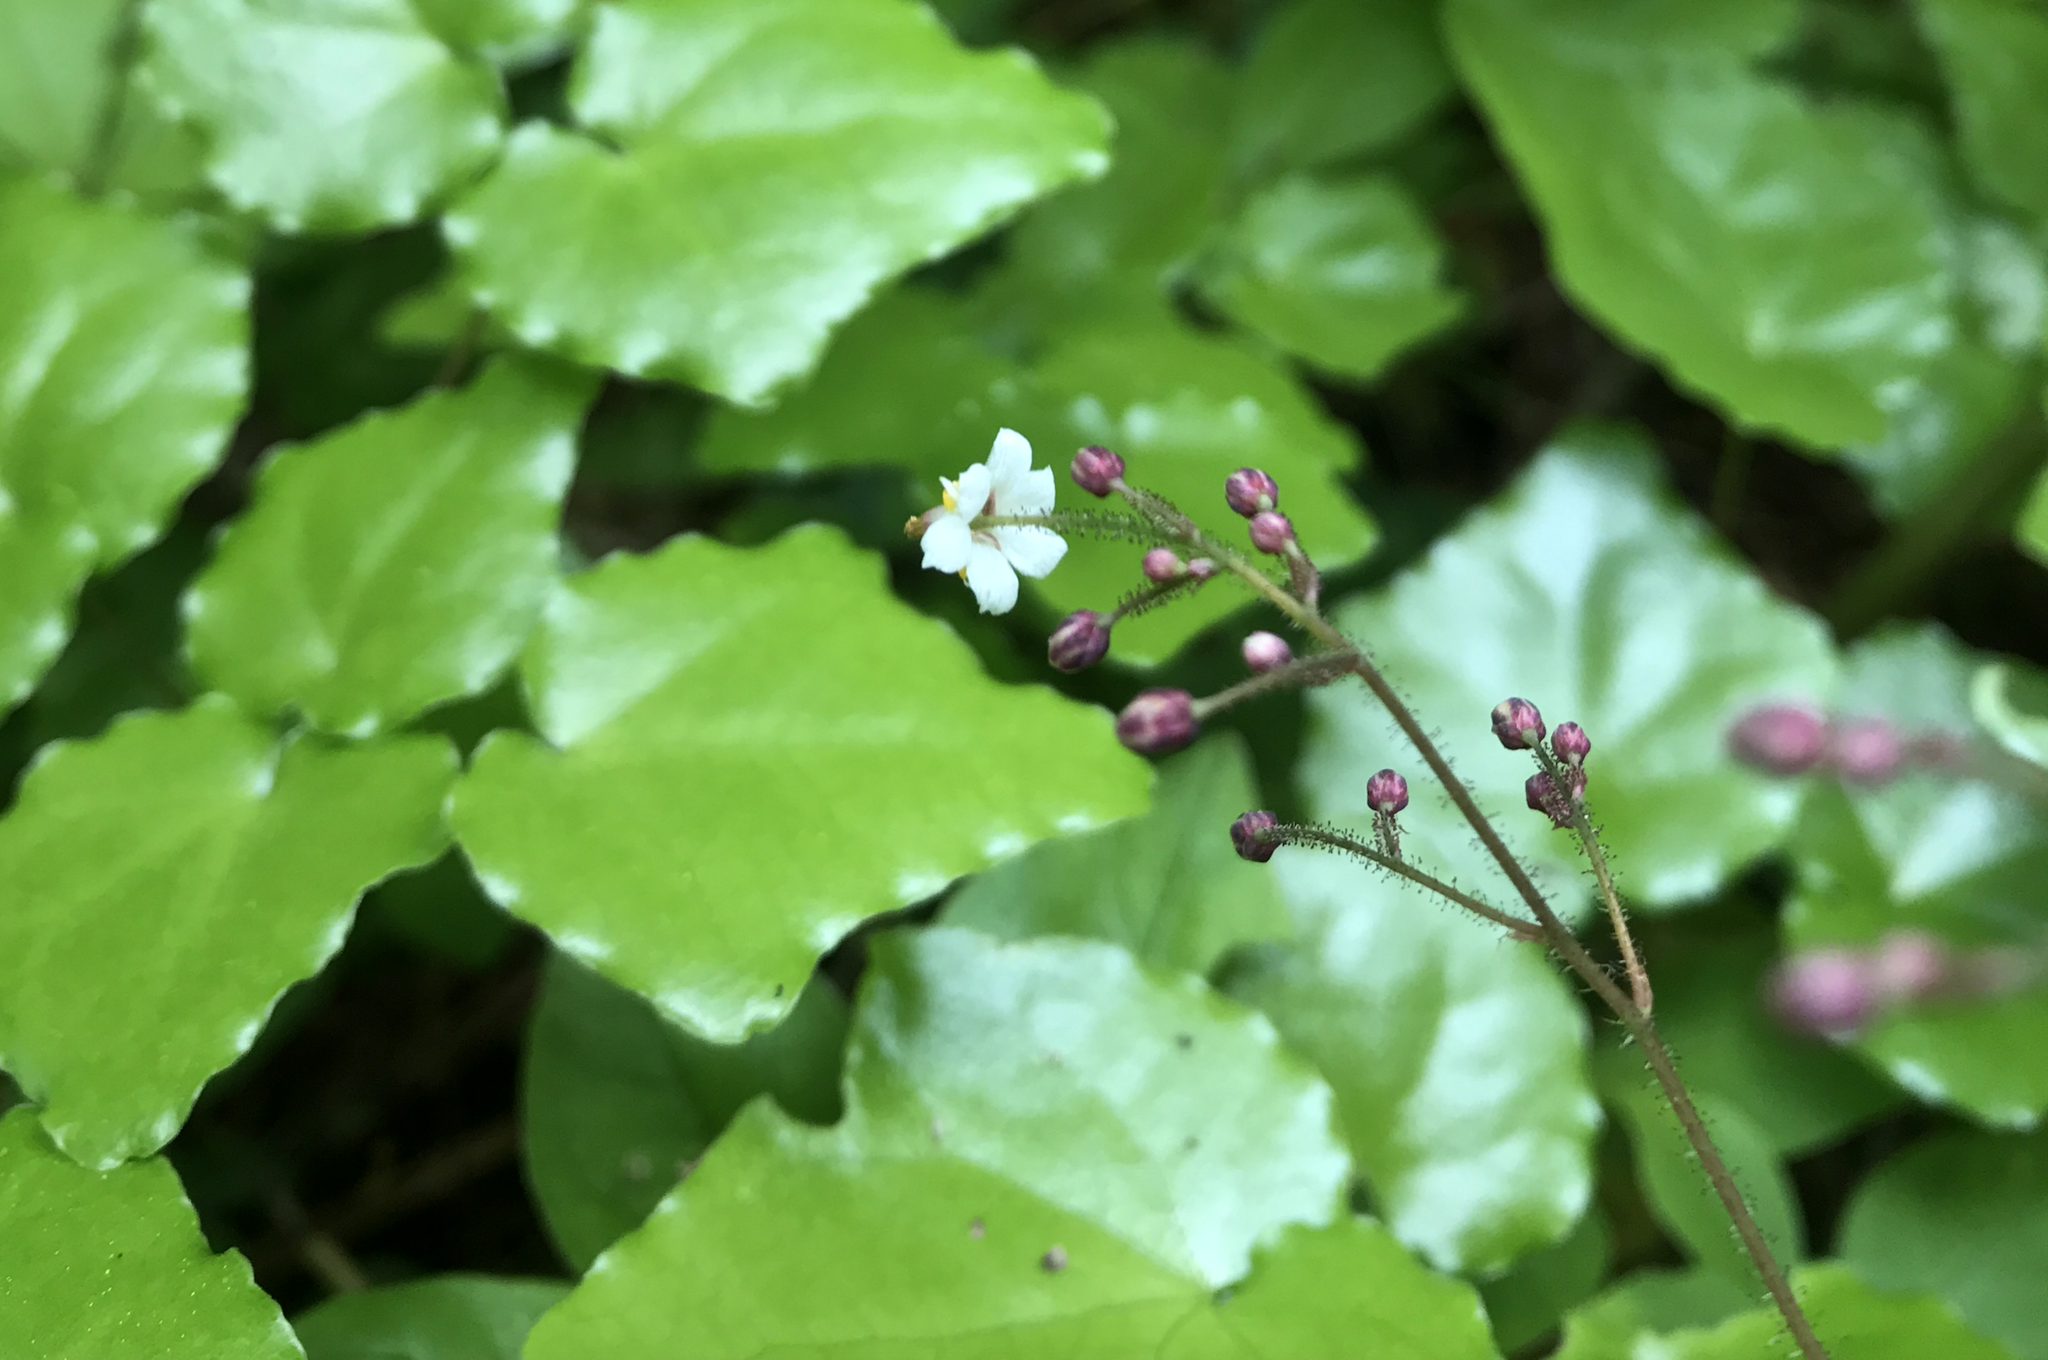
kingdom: Plantae
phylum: Tracheophyta
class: Magnoliopsida
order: Ranunculales
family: Berberidaceae
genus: Vancouveria
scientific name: Vancouveria planipetala
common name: Redwood-ivy
